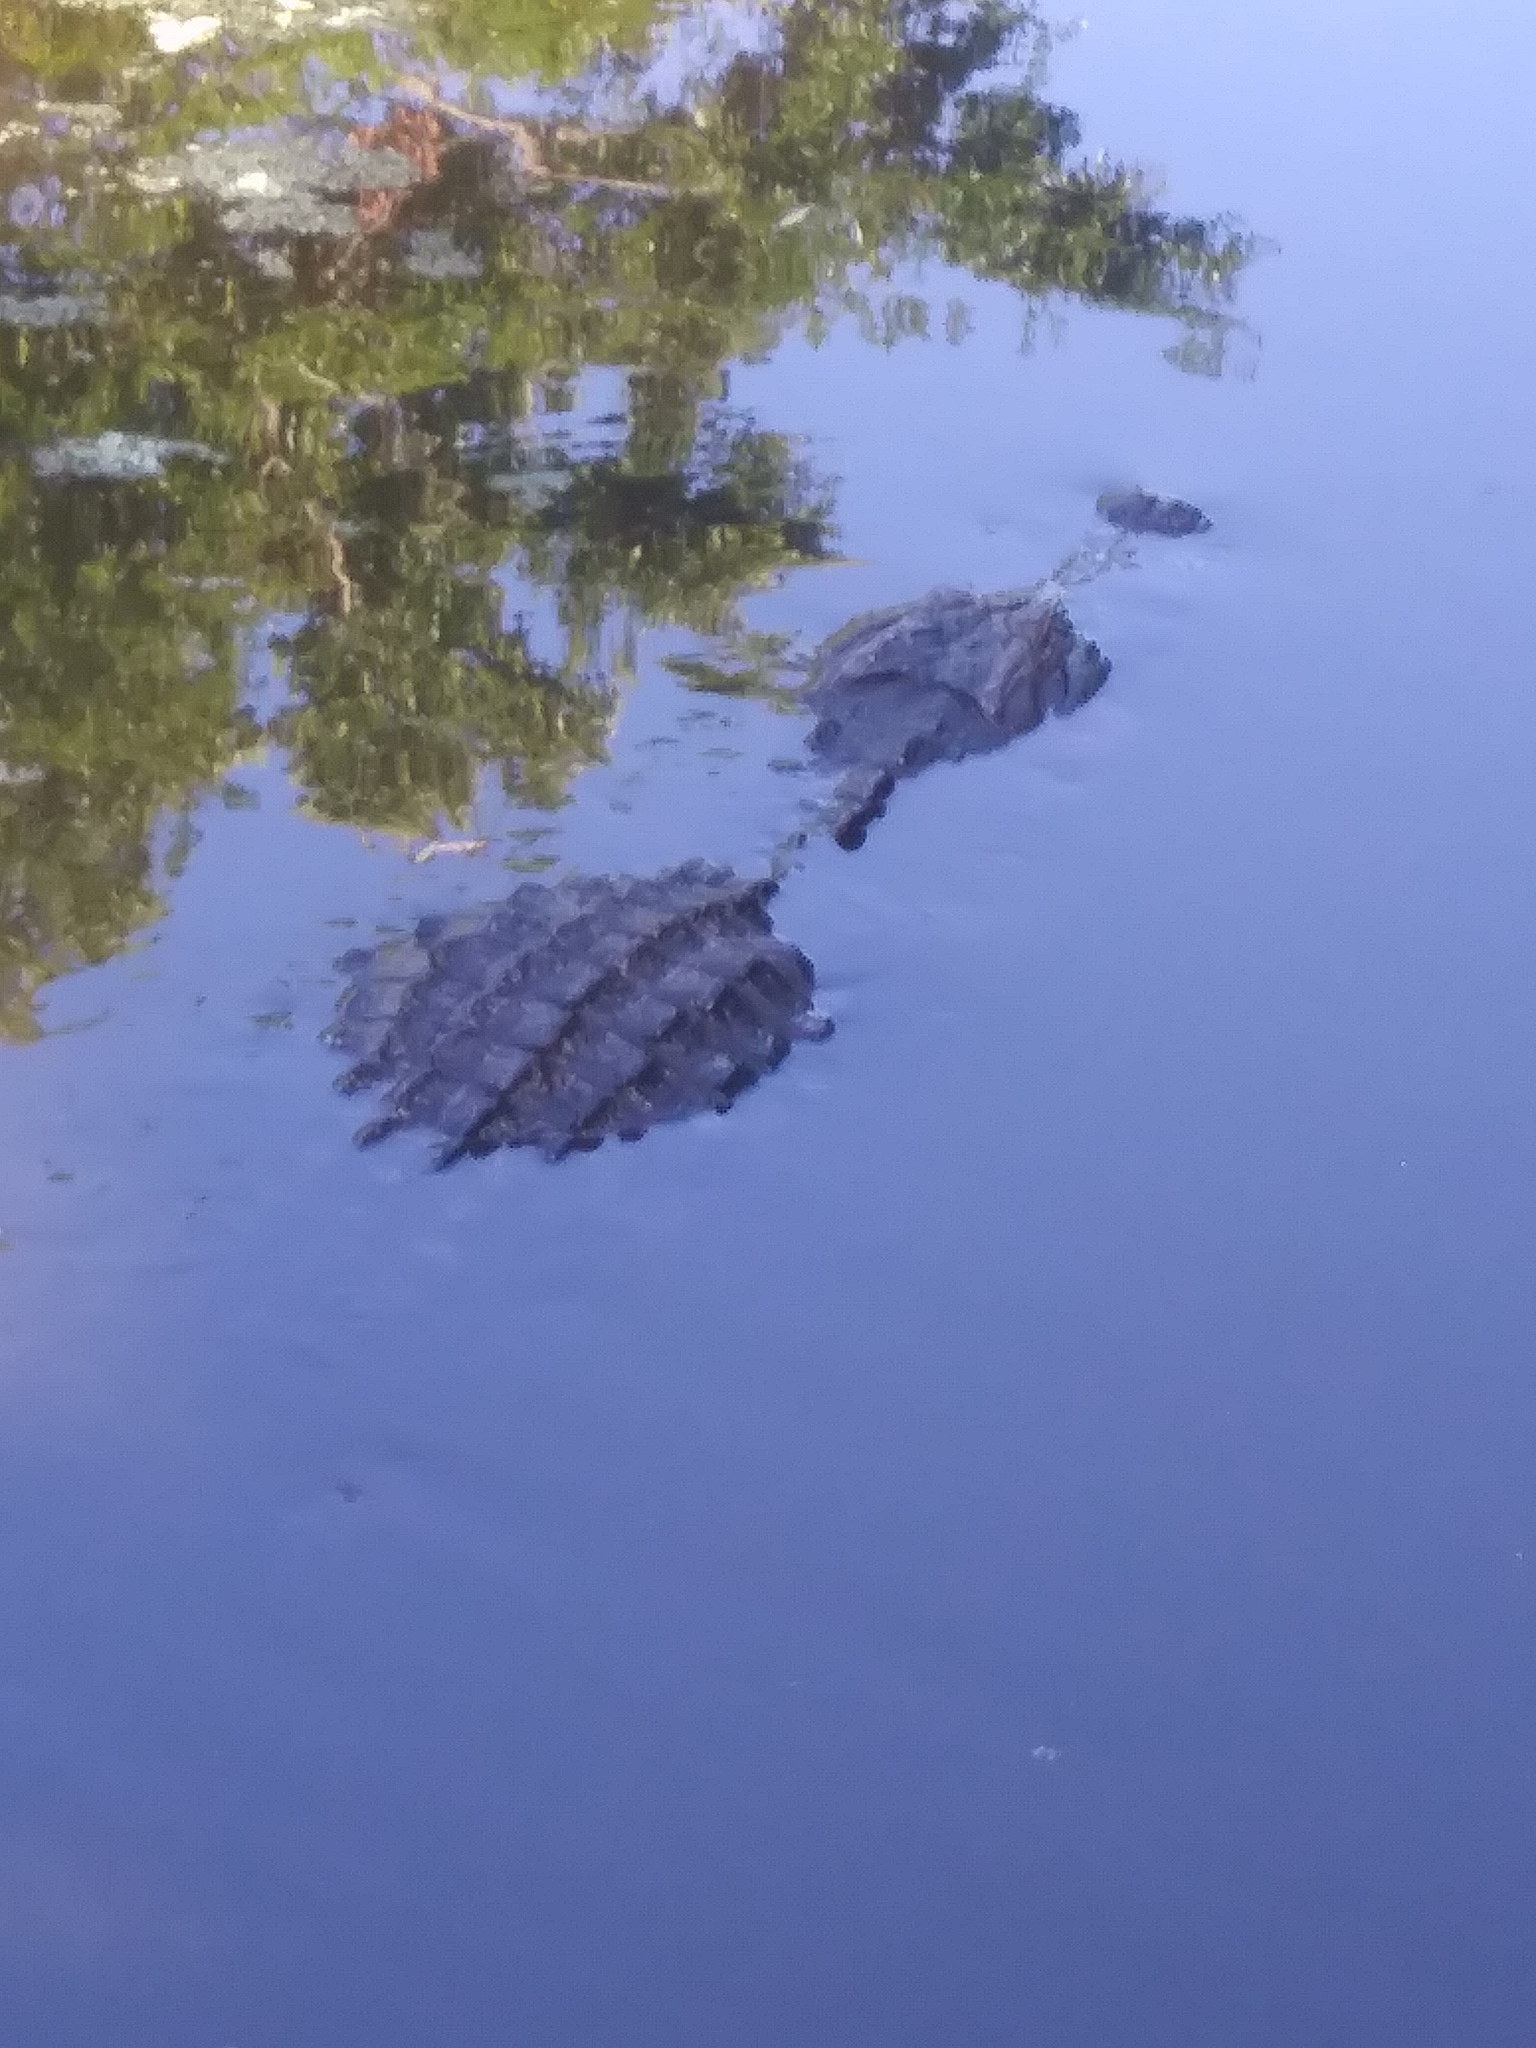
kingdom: Animalia
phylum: Chordata
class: Crocodylia
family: Alligatoridae
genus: Alligator
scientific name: Alligator mississippiensis
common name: American alligator
